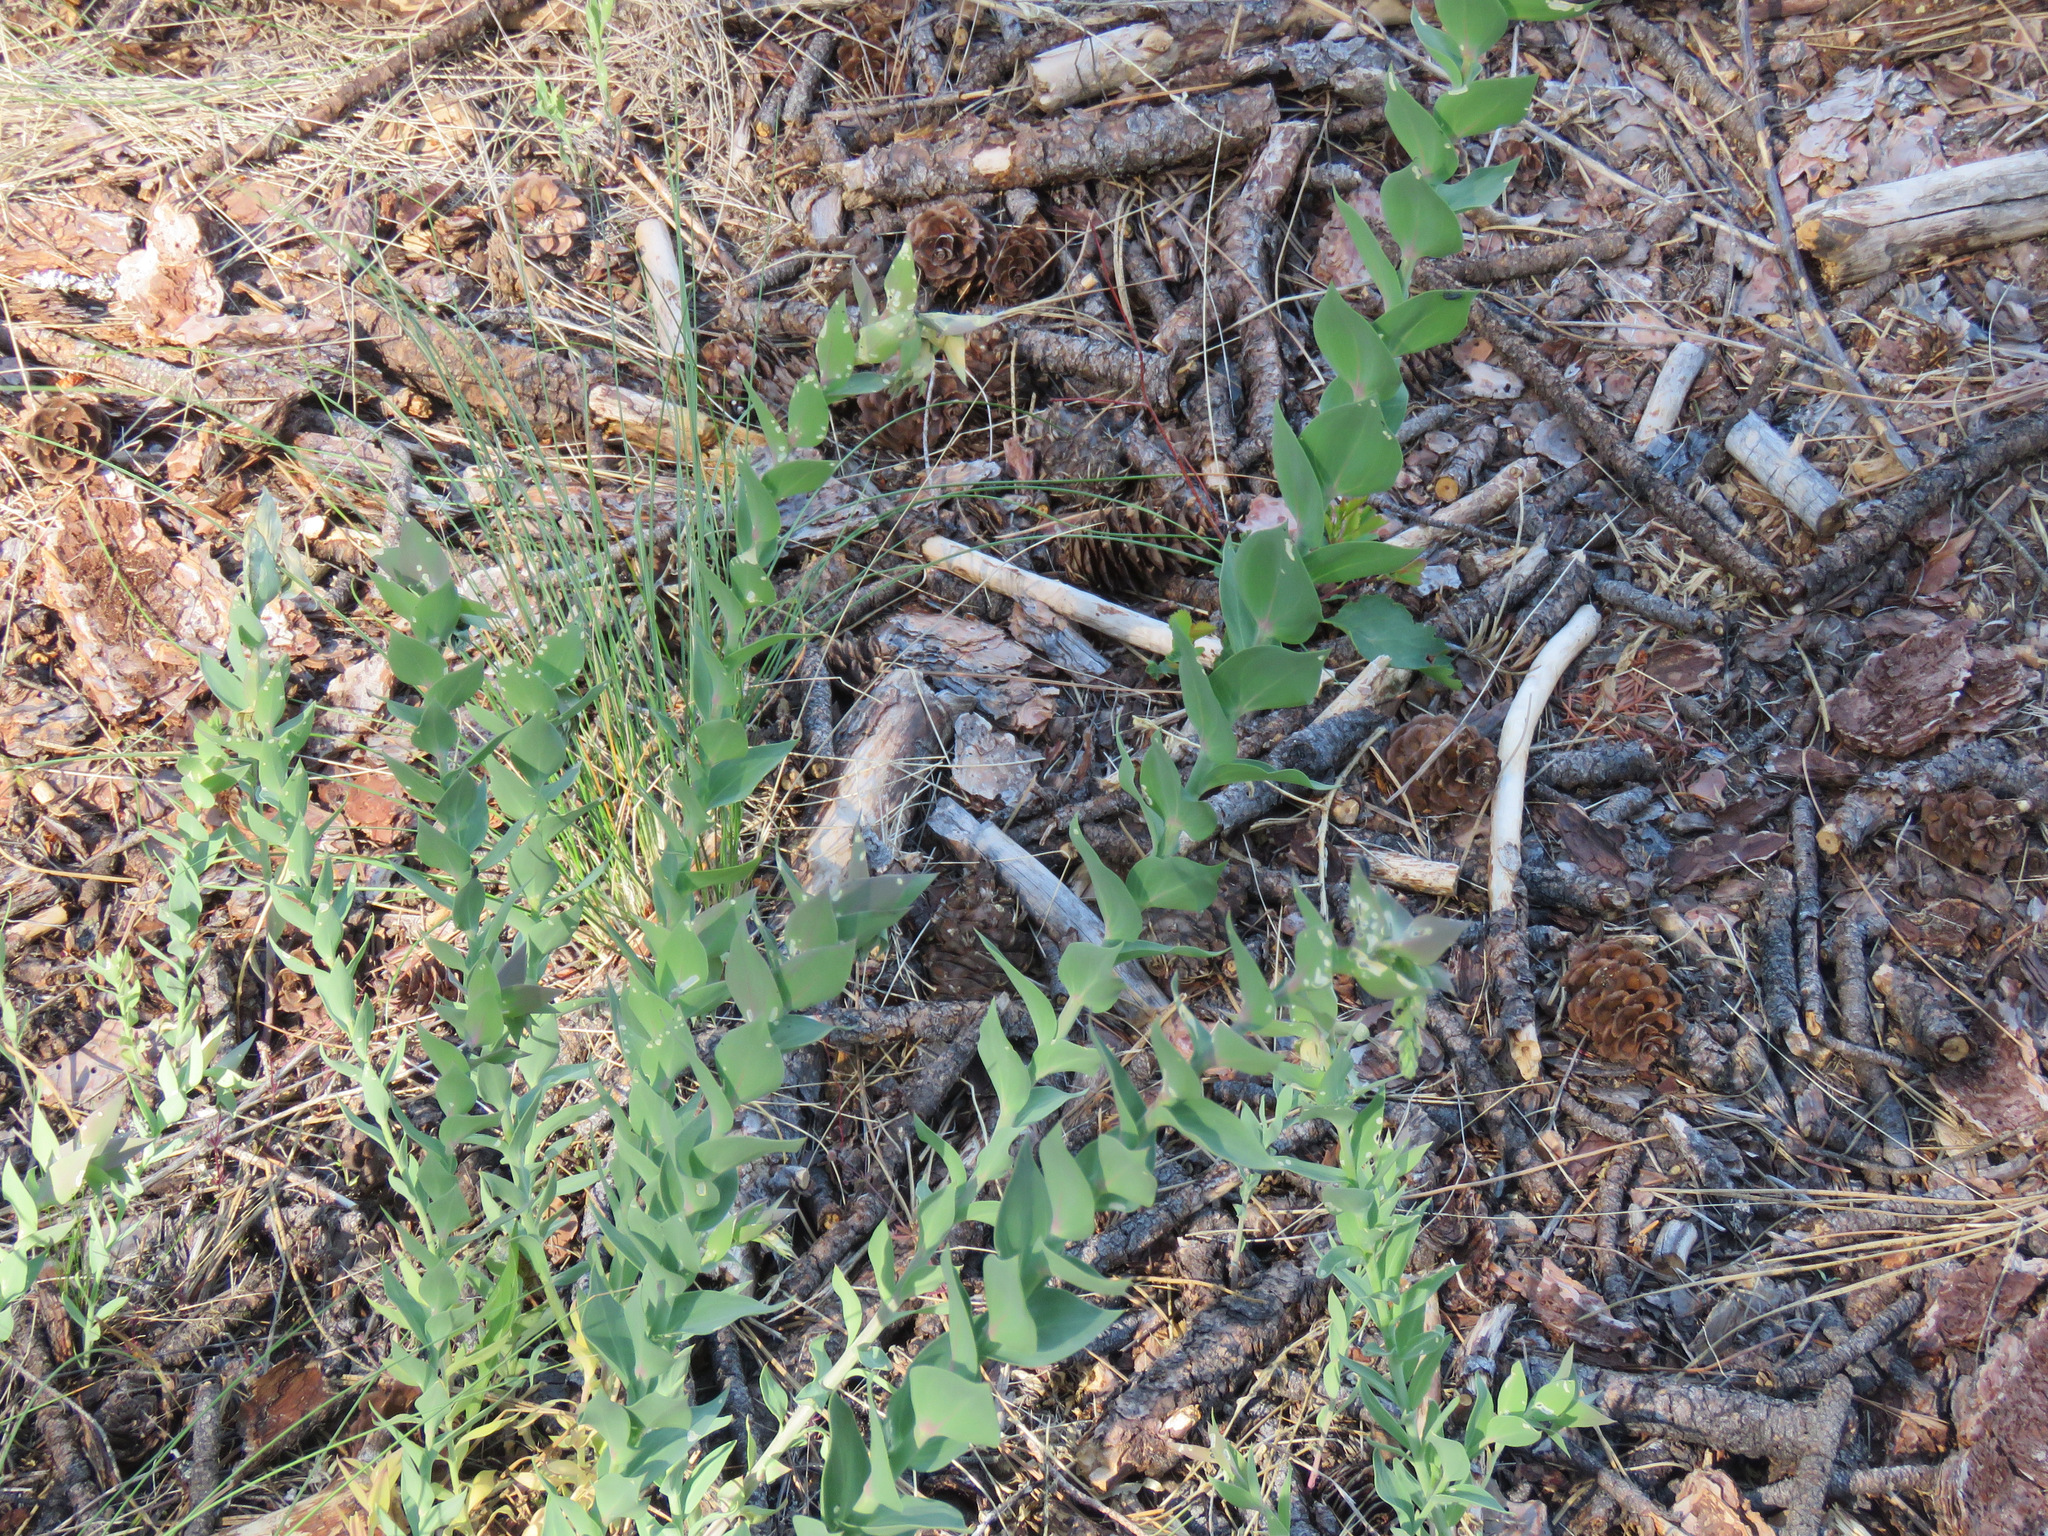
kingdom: Plantae
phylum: Tracheophyta
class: Magnoliopsida
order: Lamiales
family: Plantaginaceae
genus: Linaria
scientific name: Linaria dalmatica
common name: Dalmatian toadflax
